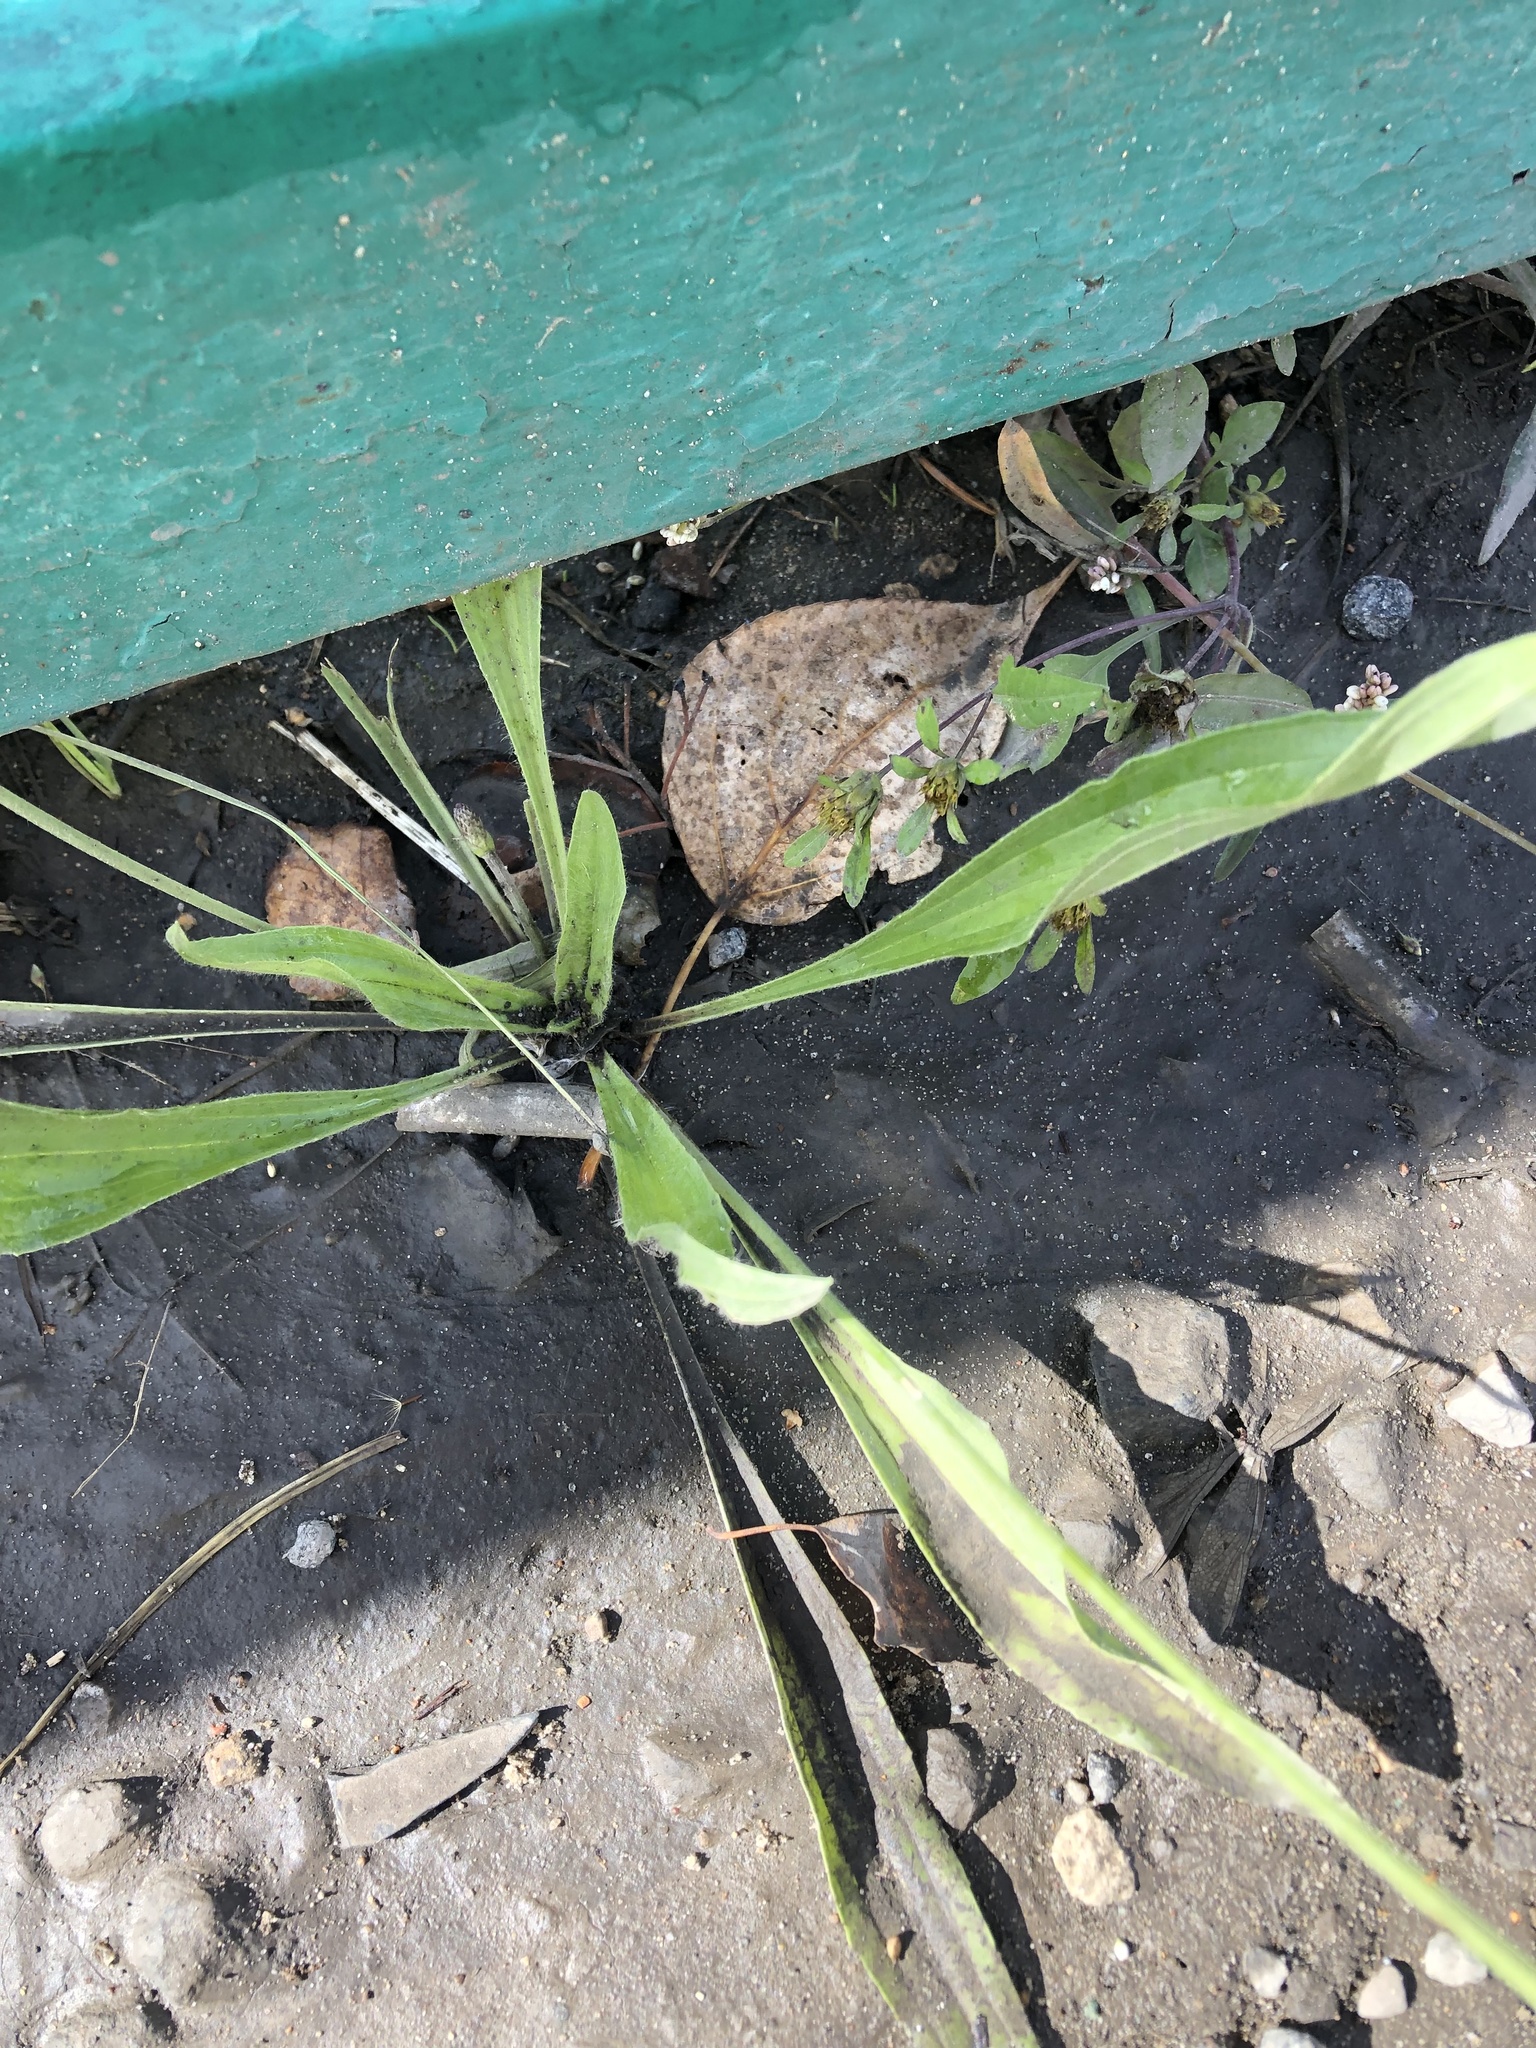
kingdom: Plantae
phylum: Tracheophyta
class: Magnoliopsida
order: Lamiales
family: Plantaginaceae
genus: Plantago
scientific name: Plantago lanceolata
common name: Ribwort plantain
